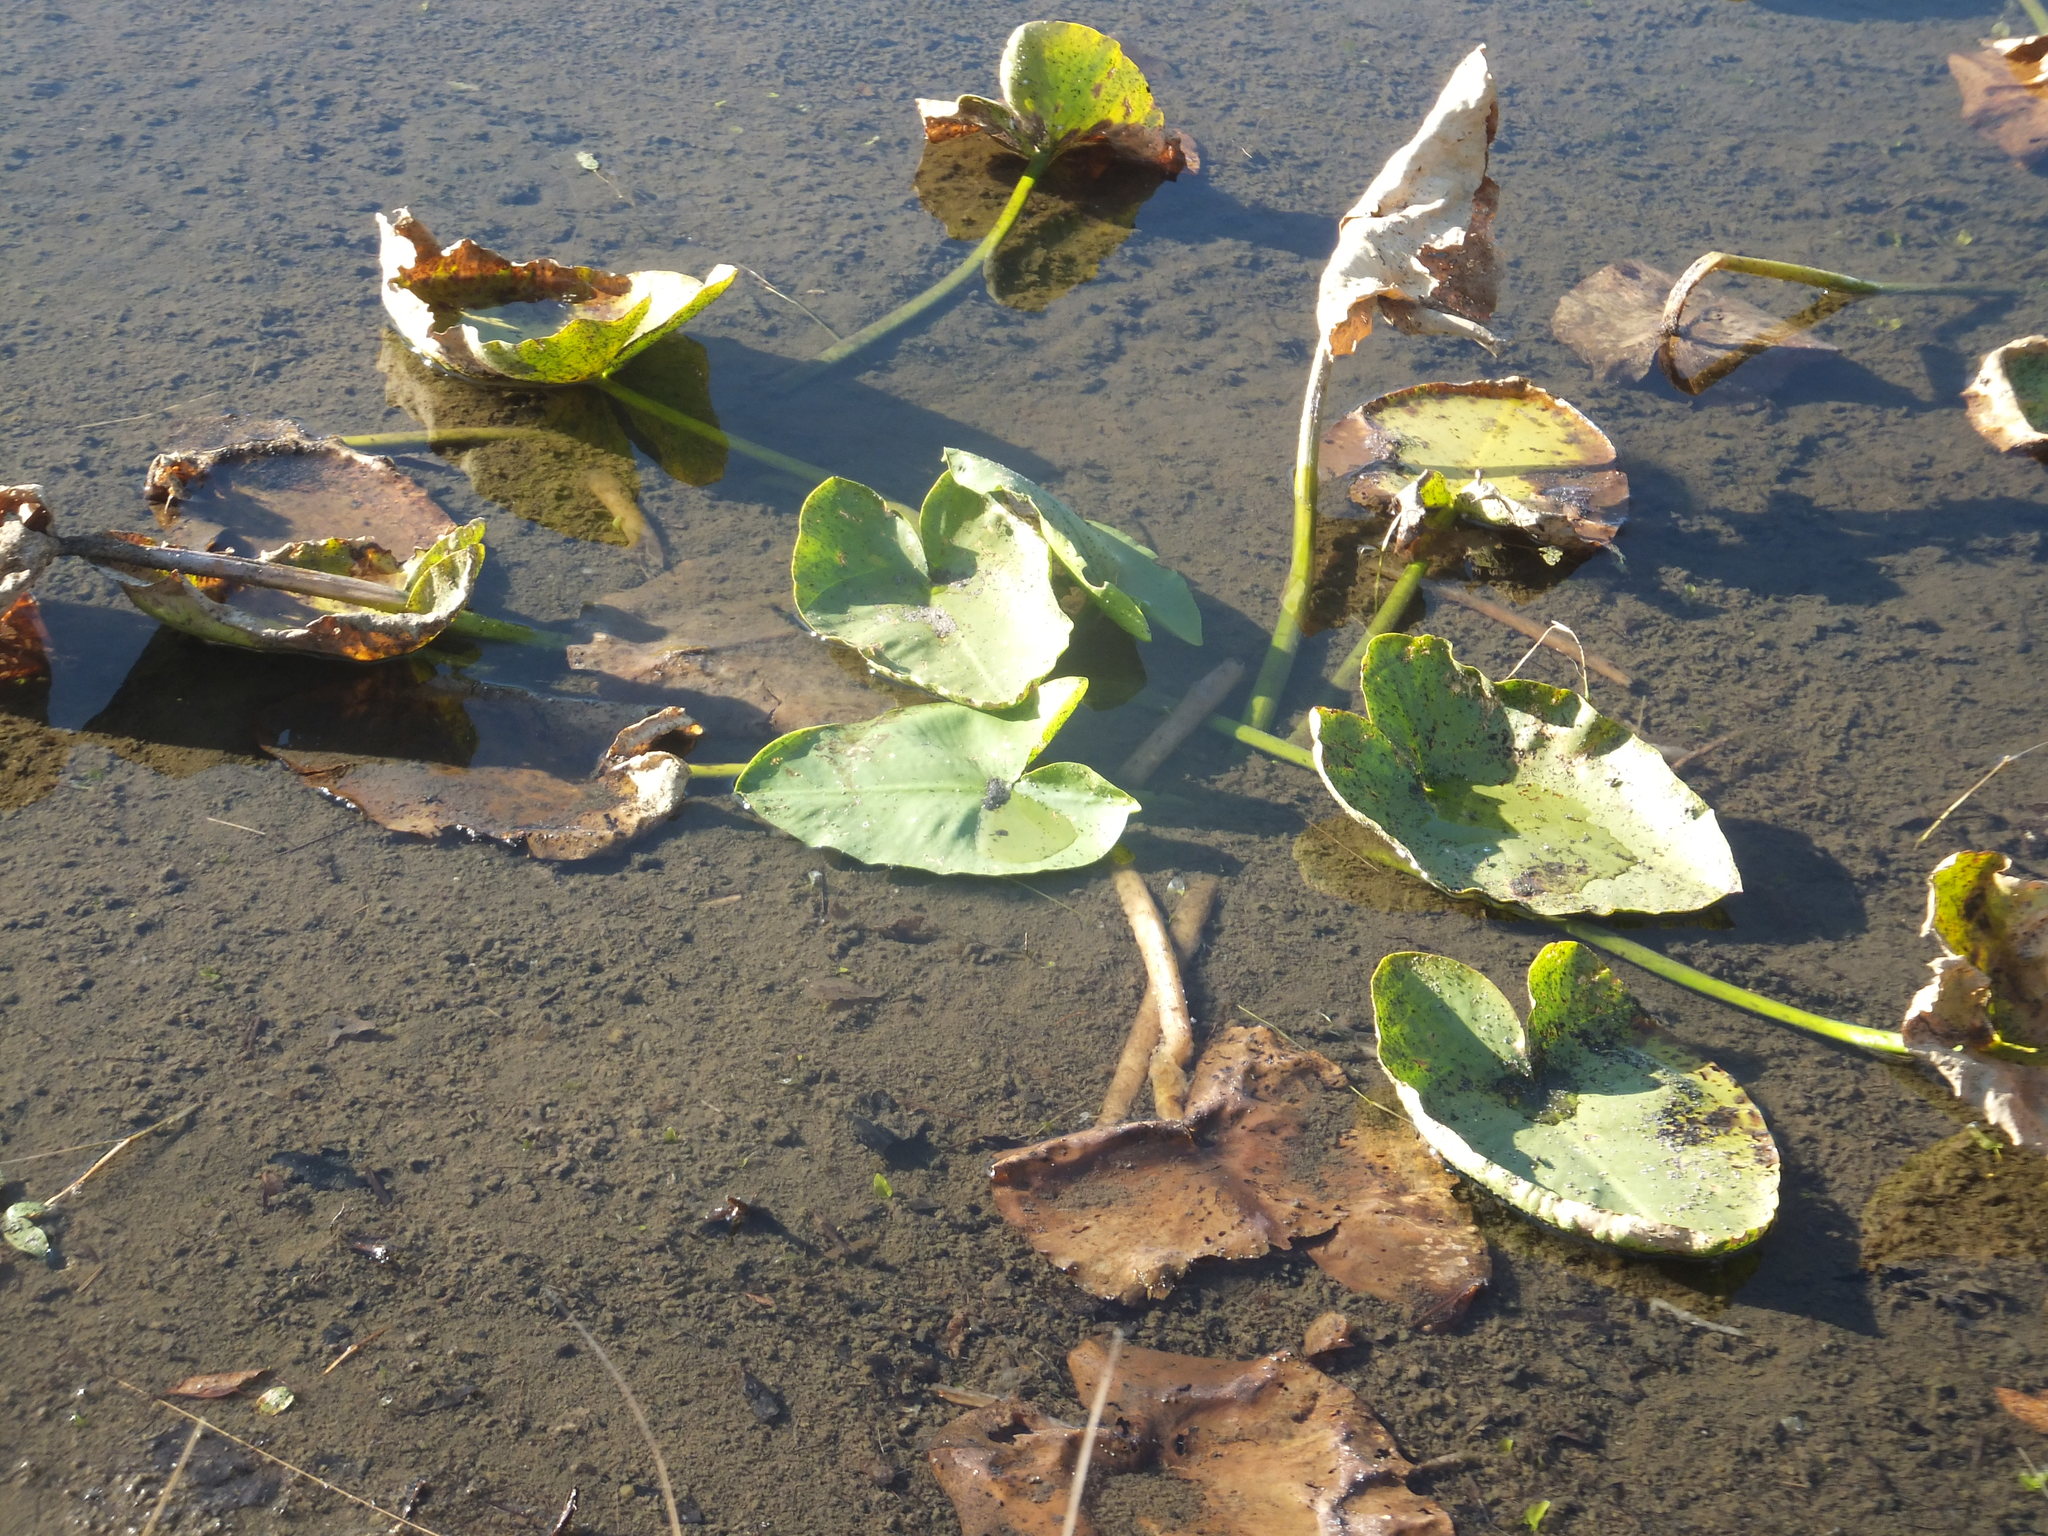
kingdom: Plantae
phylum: Tracheophyta
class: Magnoliopsida
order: Nymphaeales
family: Nymphaeaceae
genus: Nuphar
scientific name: Nuphar polysepala
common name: Rocky mountain cow-lily
